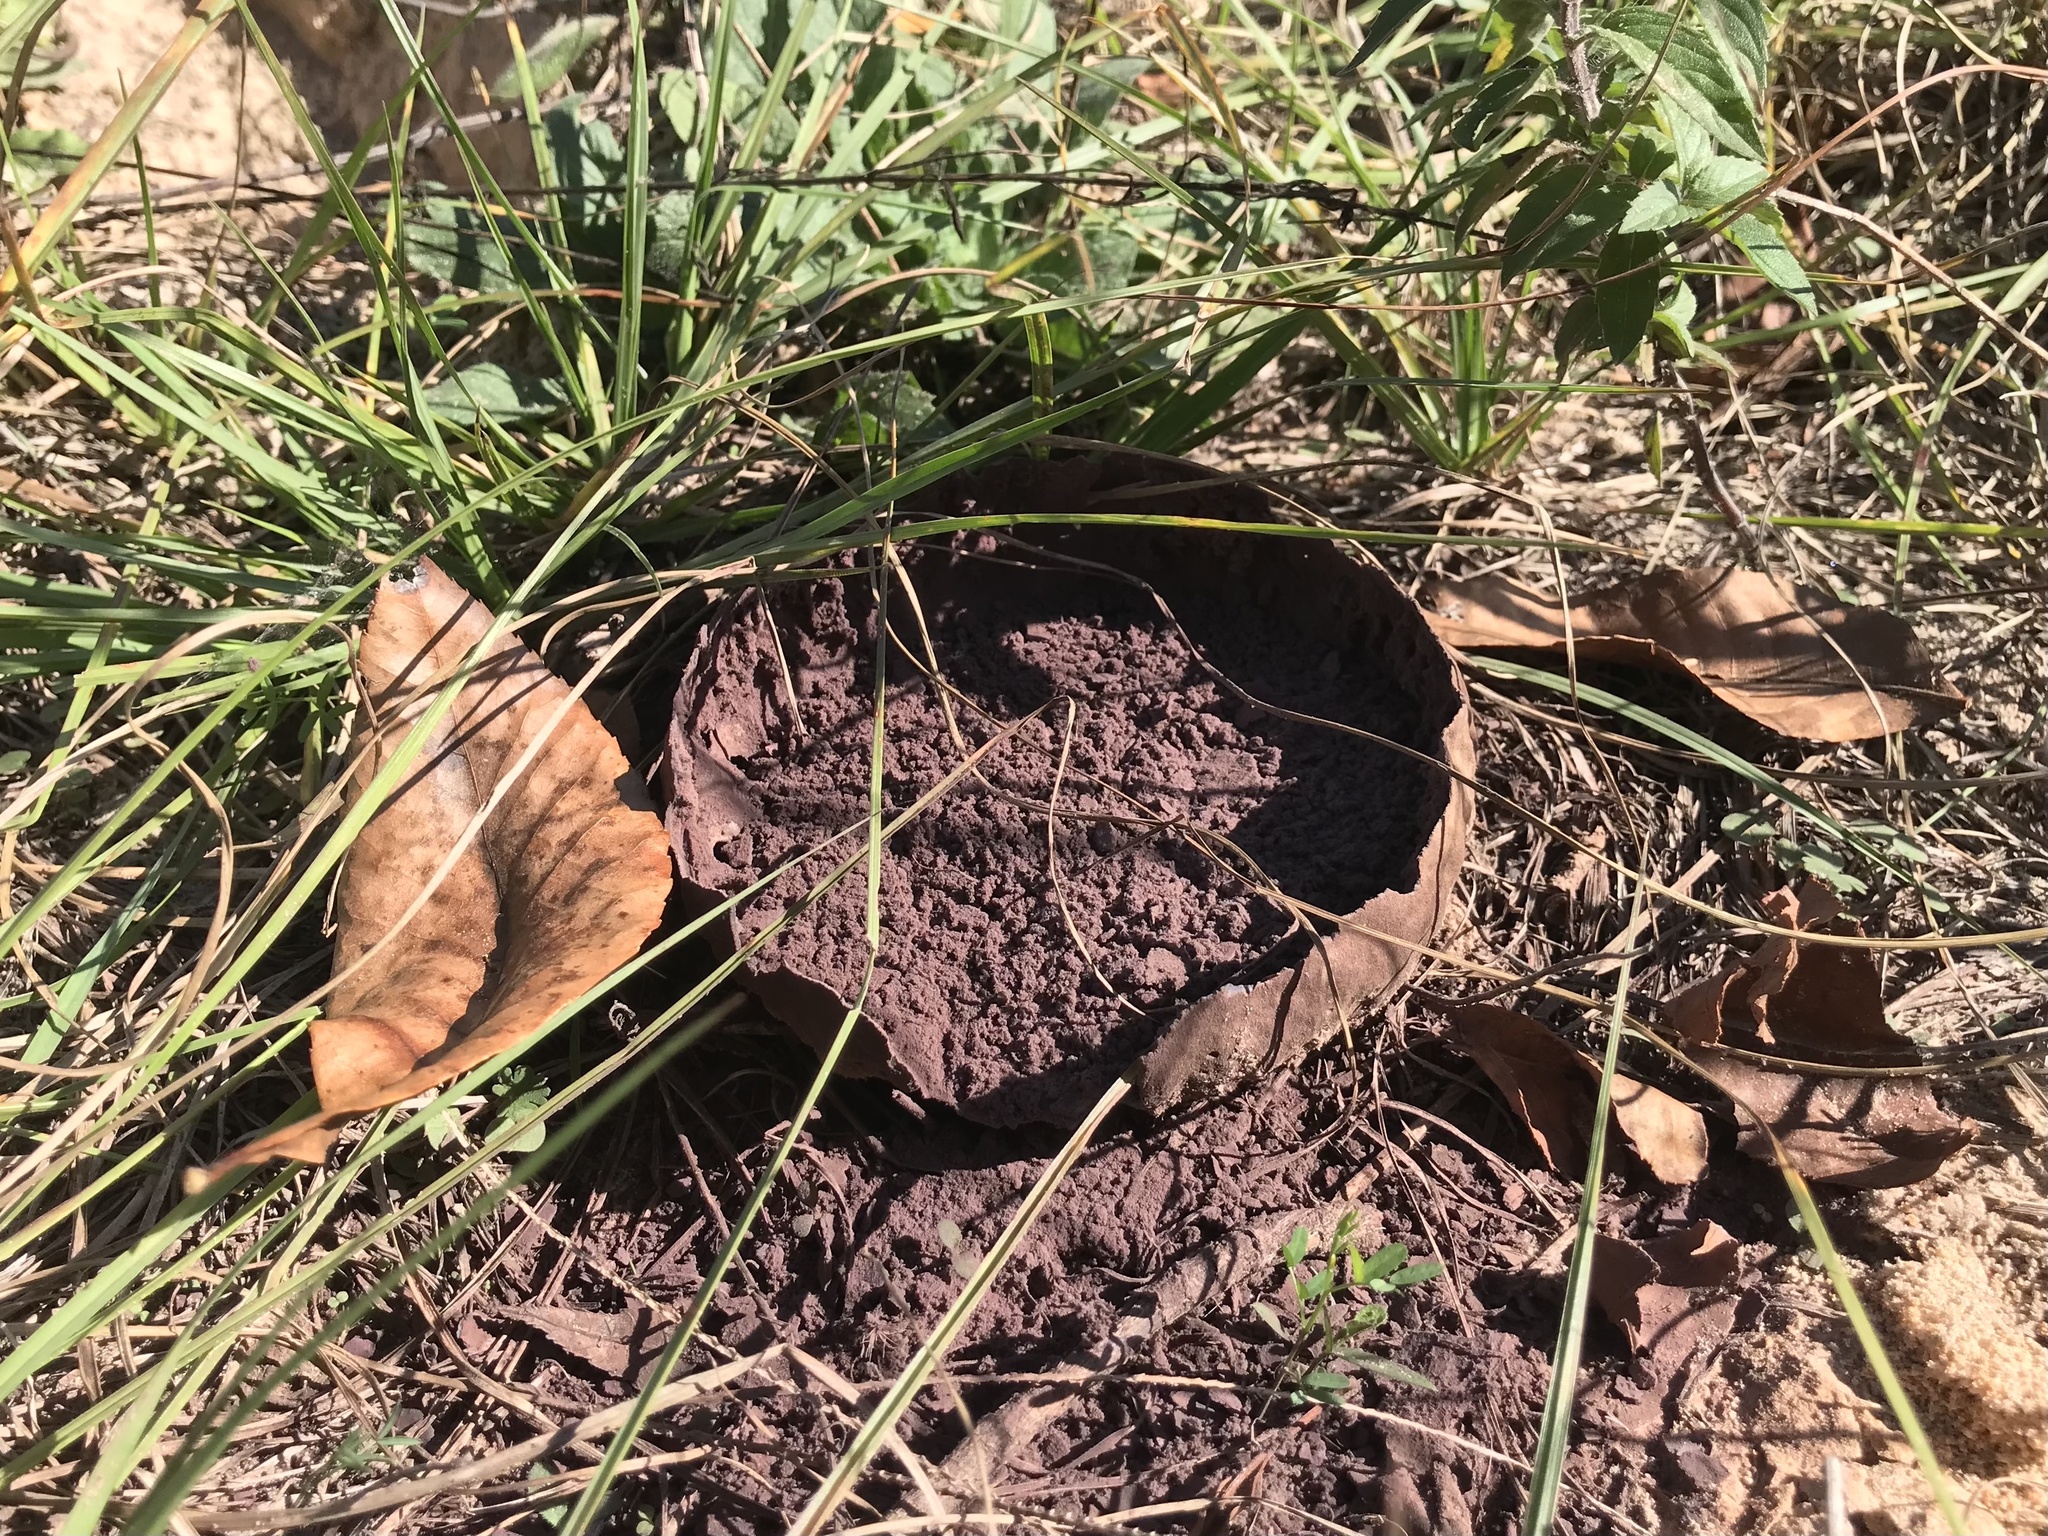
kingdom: Fungi
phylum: Basidiomycota
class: Agaricomycetes
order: Agaricales
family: Lycoperdaceae
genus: Calvatia
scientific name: Calvatia cyathiformis
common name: Purple-spored puffball
